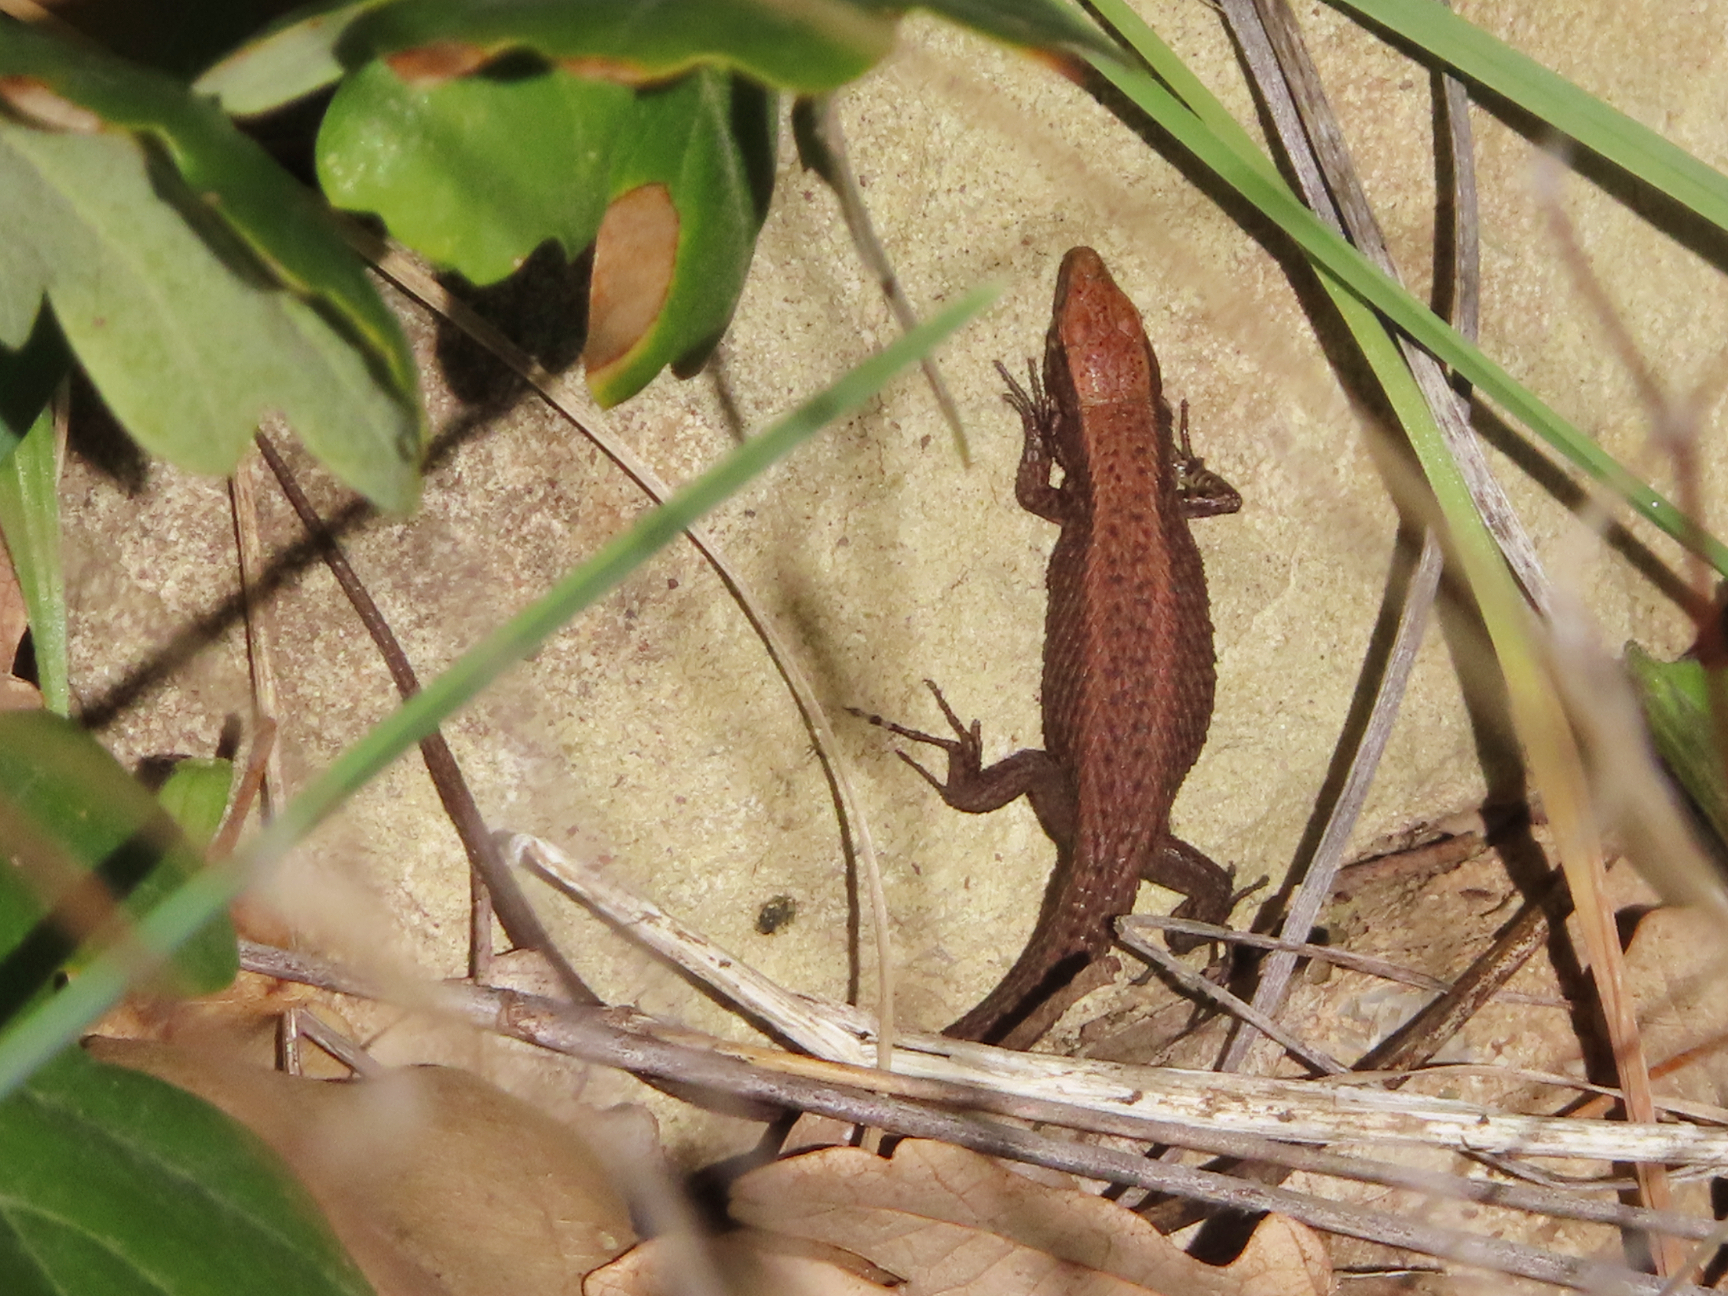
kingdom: Animalia
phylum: Chordata
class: Squamata
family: Lacertidae
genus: Algyroides
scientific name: Algyroides moreoticus
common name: Greek algyroides
